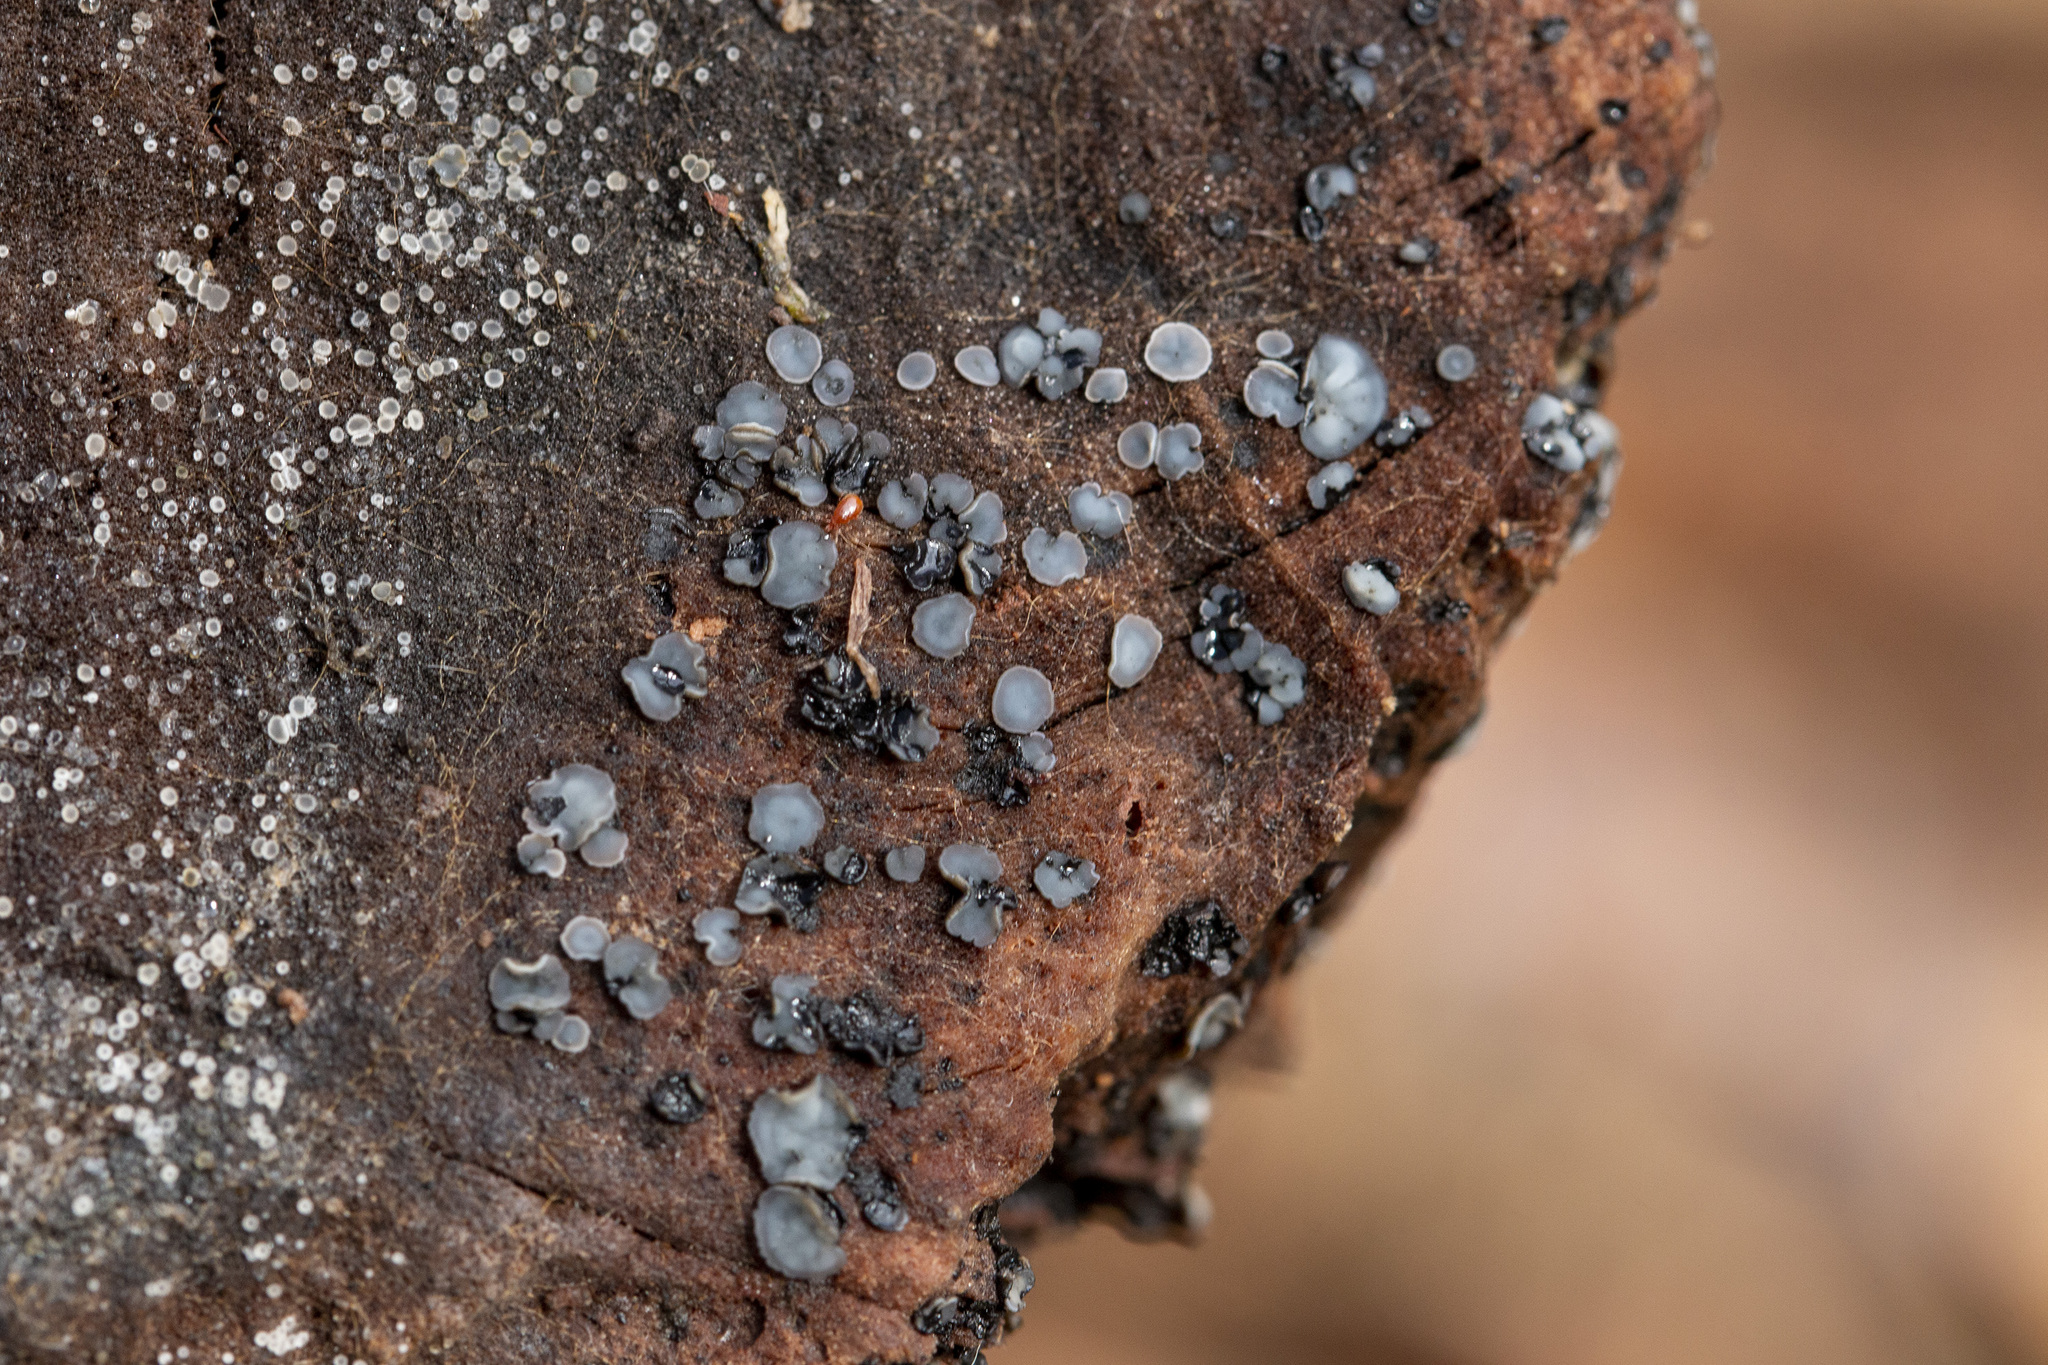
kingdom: Fungi
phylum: Ascomycota
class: Leotiomycetes
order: Helotiales
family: Mollisiaceae
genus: Mollisia
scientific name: Mollisia cinerea
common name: Common grey disco
